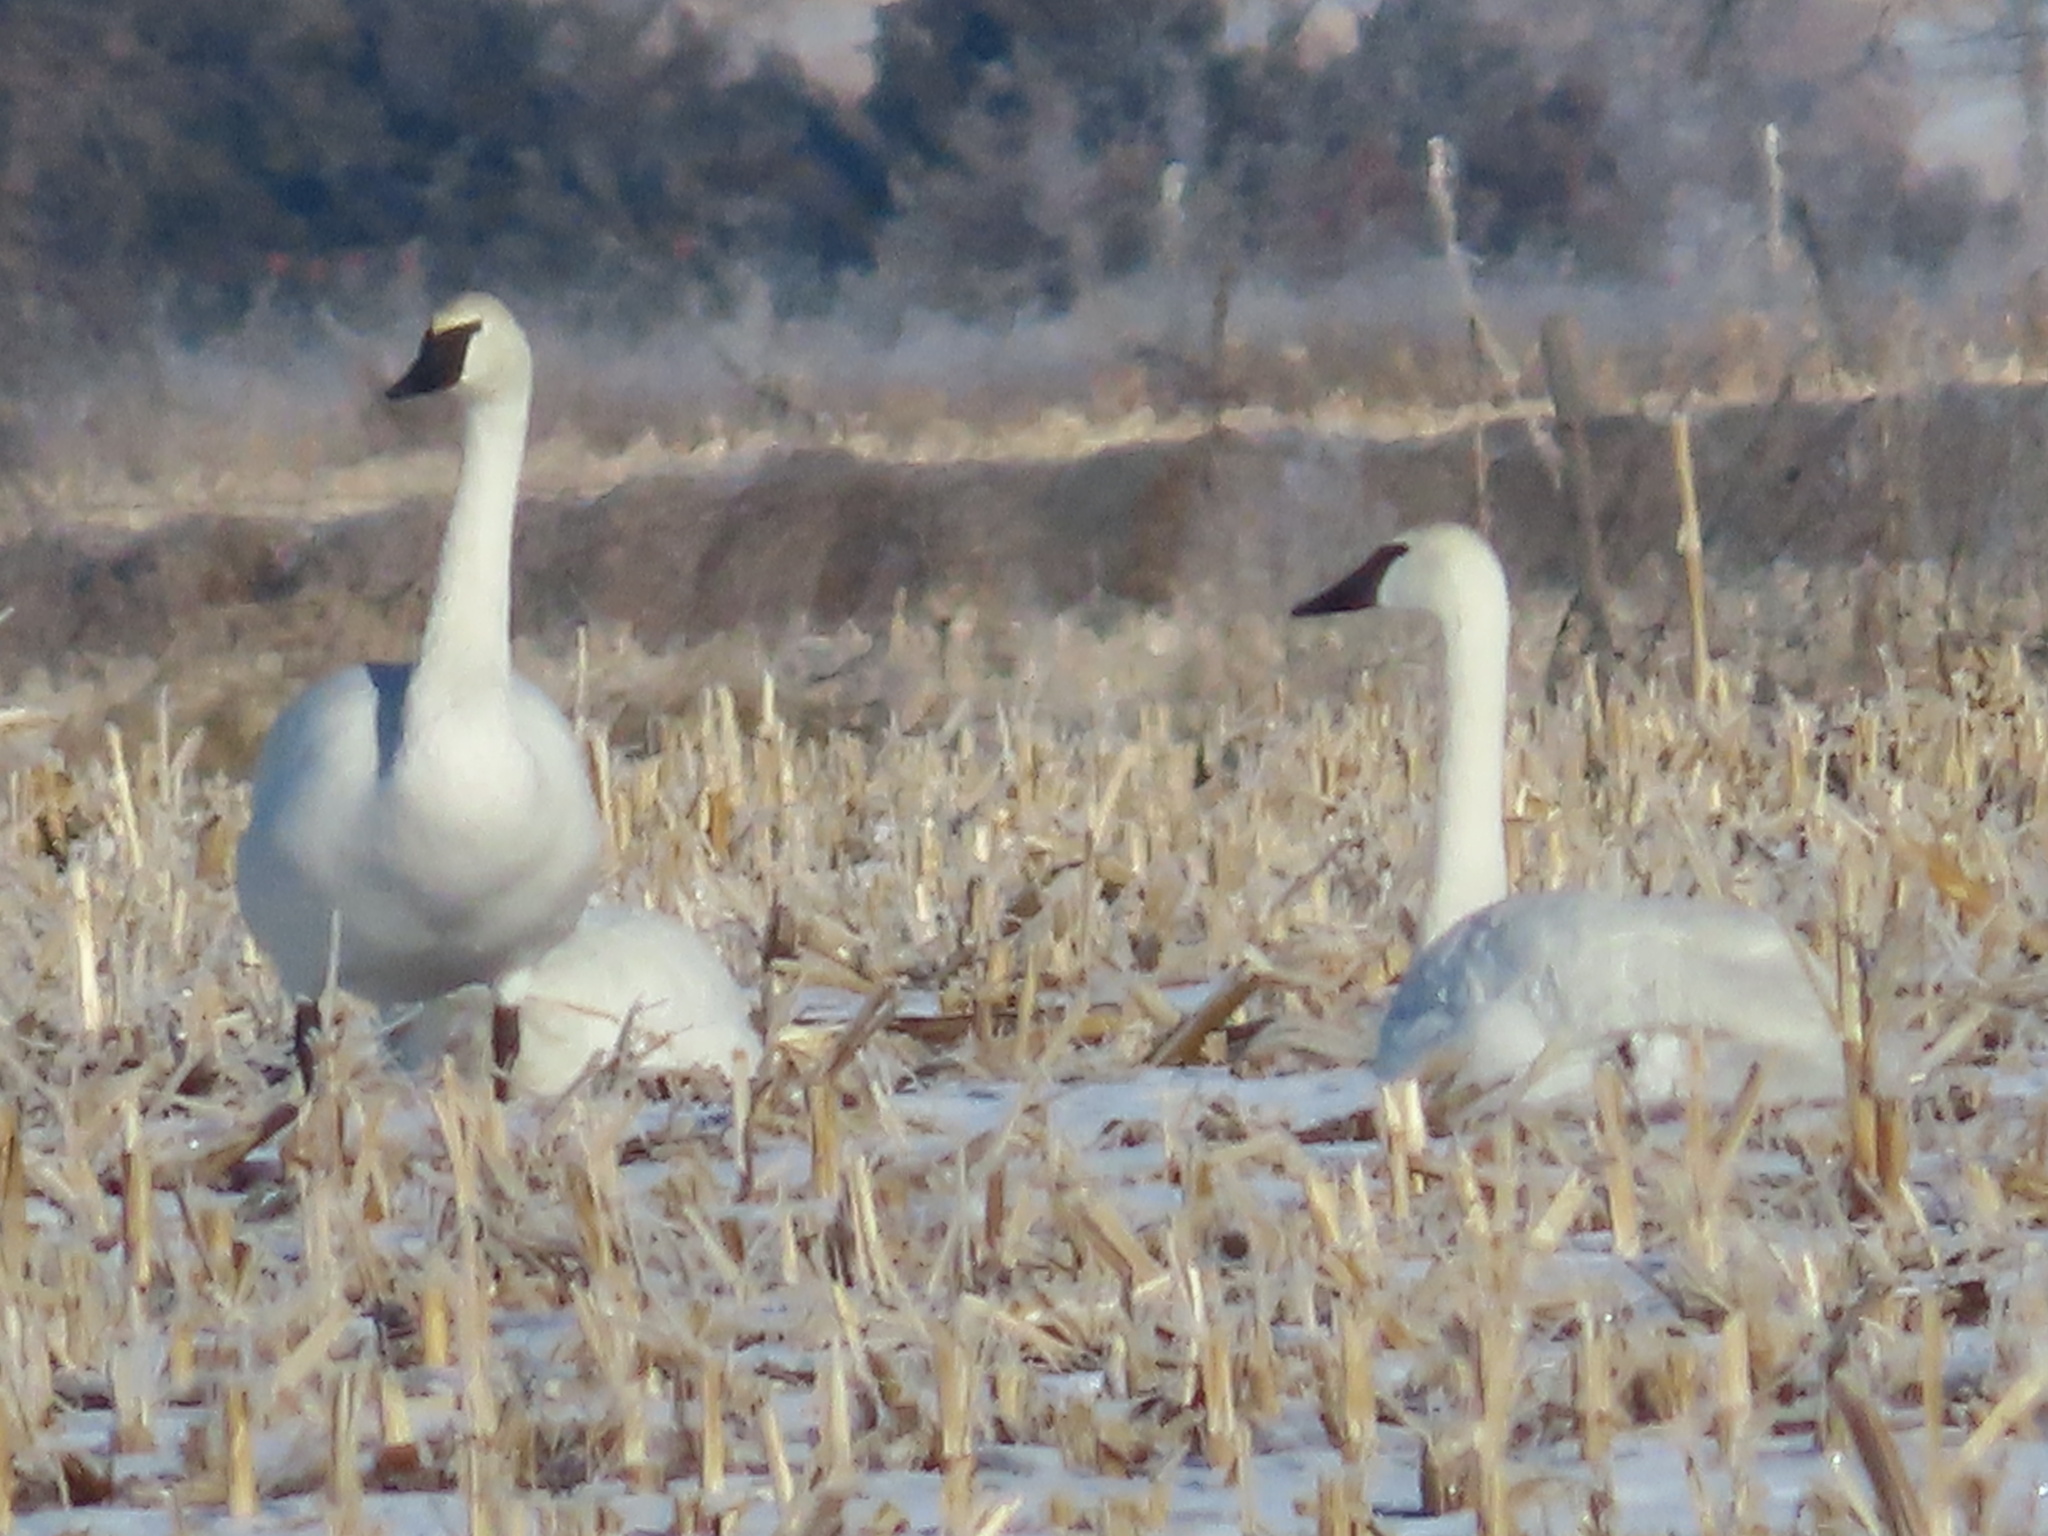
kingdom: Animalia
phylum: Chordata
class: Aves
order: Anseriformes
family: Anatidae
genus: Cygnus
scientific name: Cygnus buccinator
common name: Trumpeter swan
